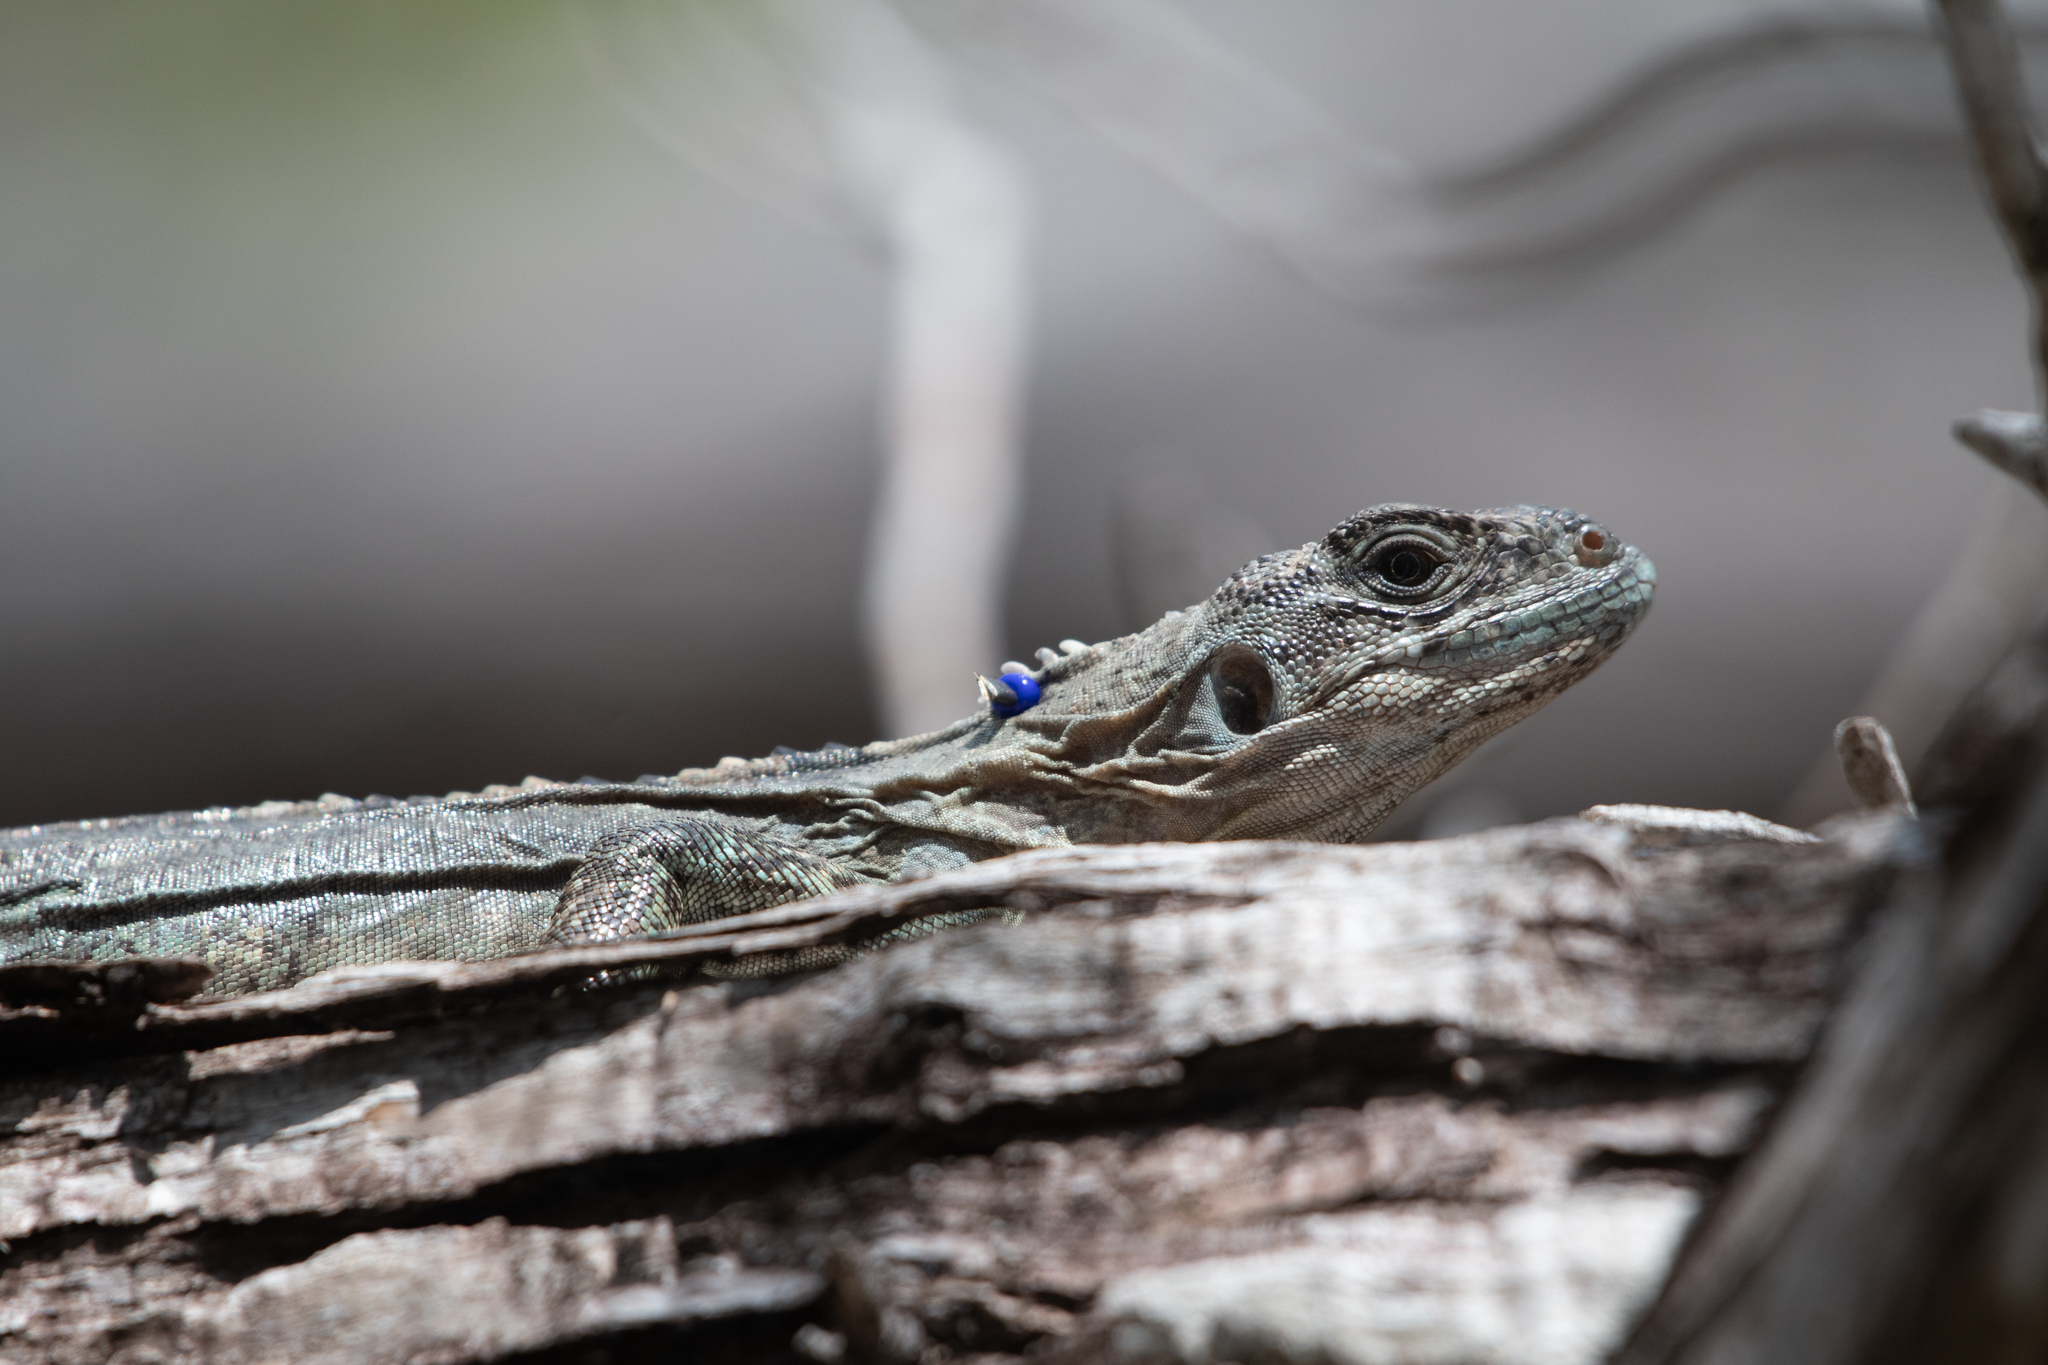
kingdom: Animalia
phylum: Chordata
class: Squamata
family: Iguanidae
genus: Ctenosaura
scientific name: Ctenosaura bakeri
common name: Utila spiny-tailed iguana
